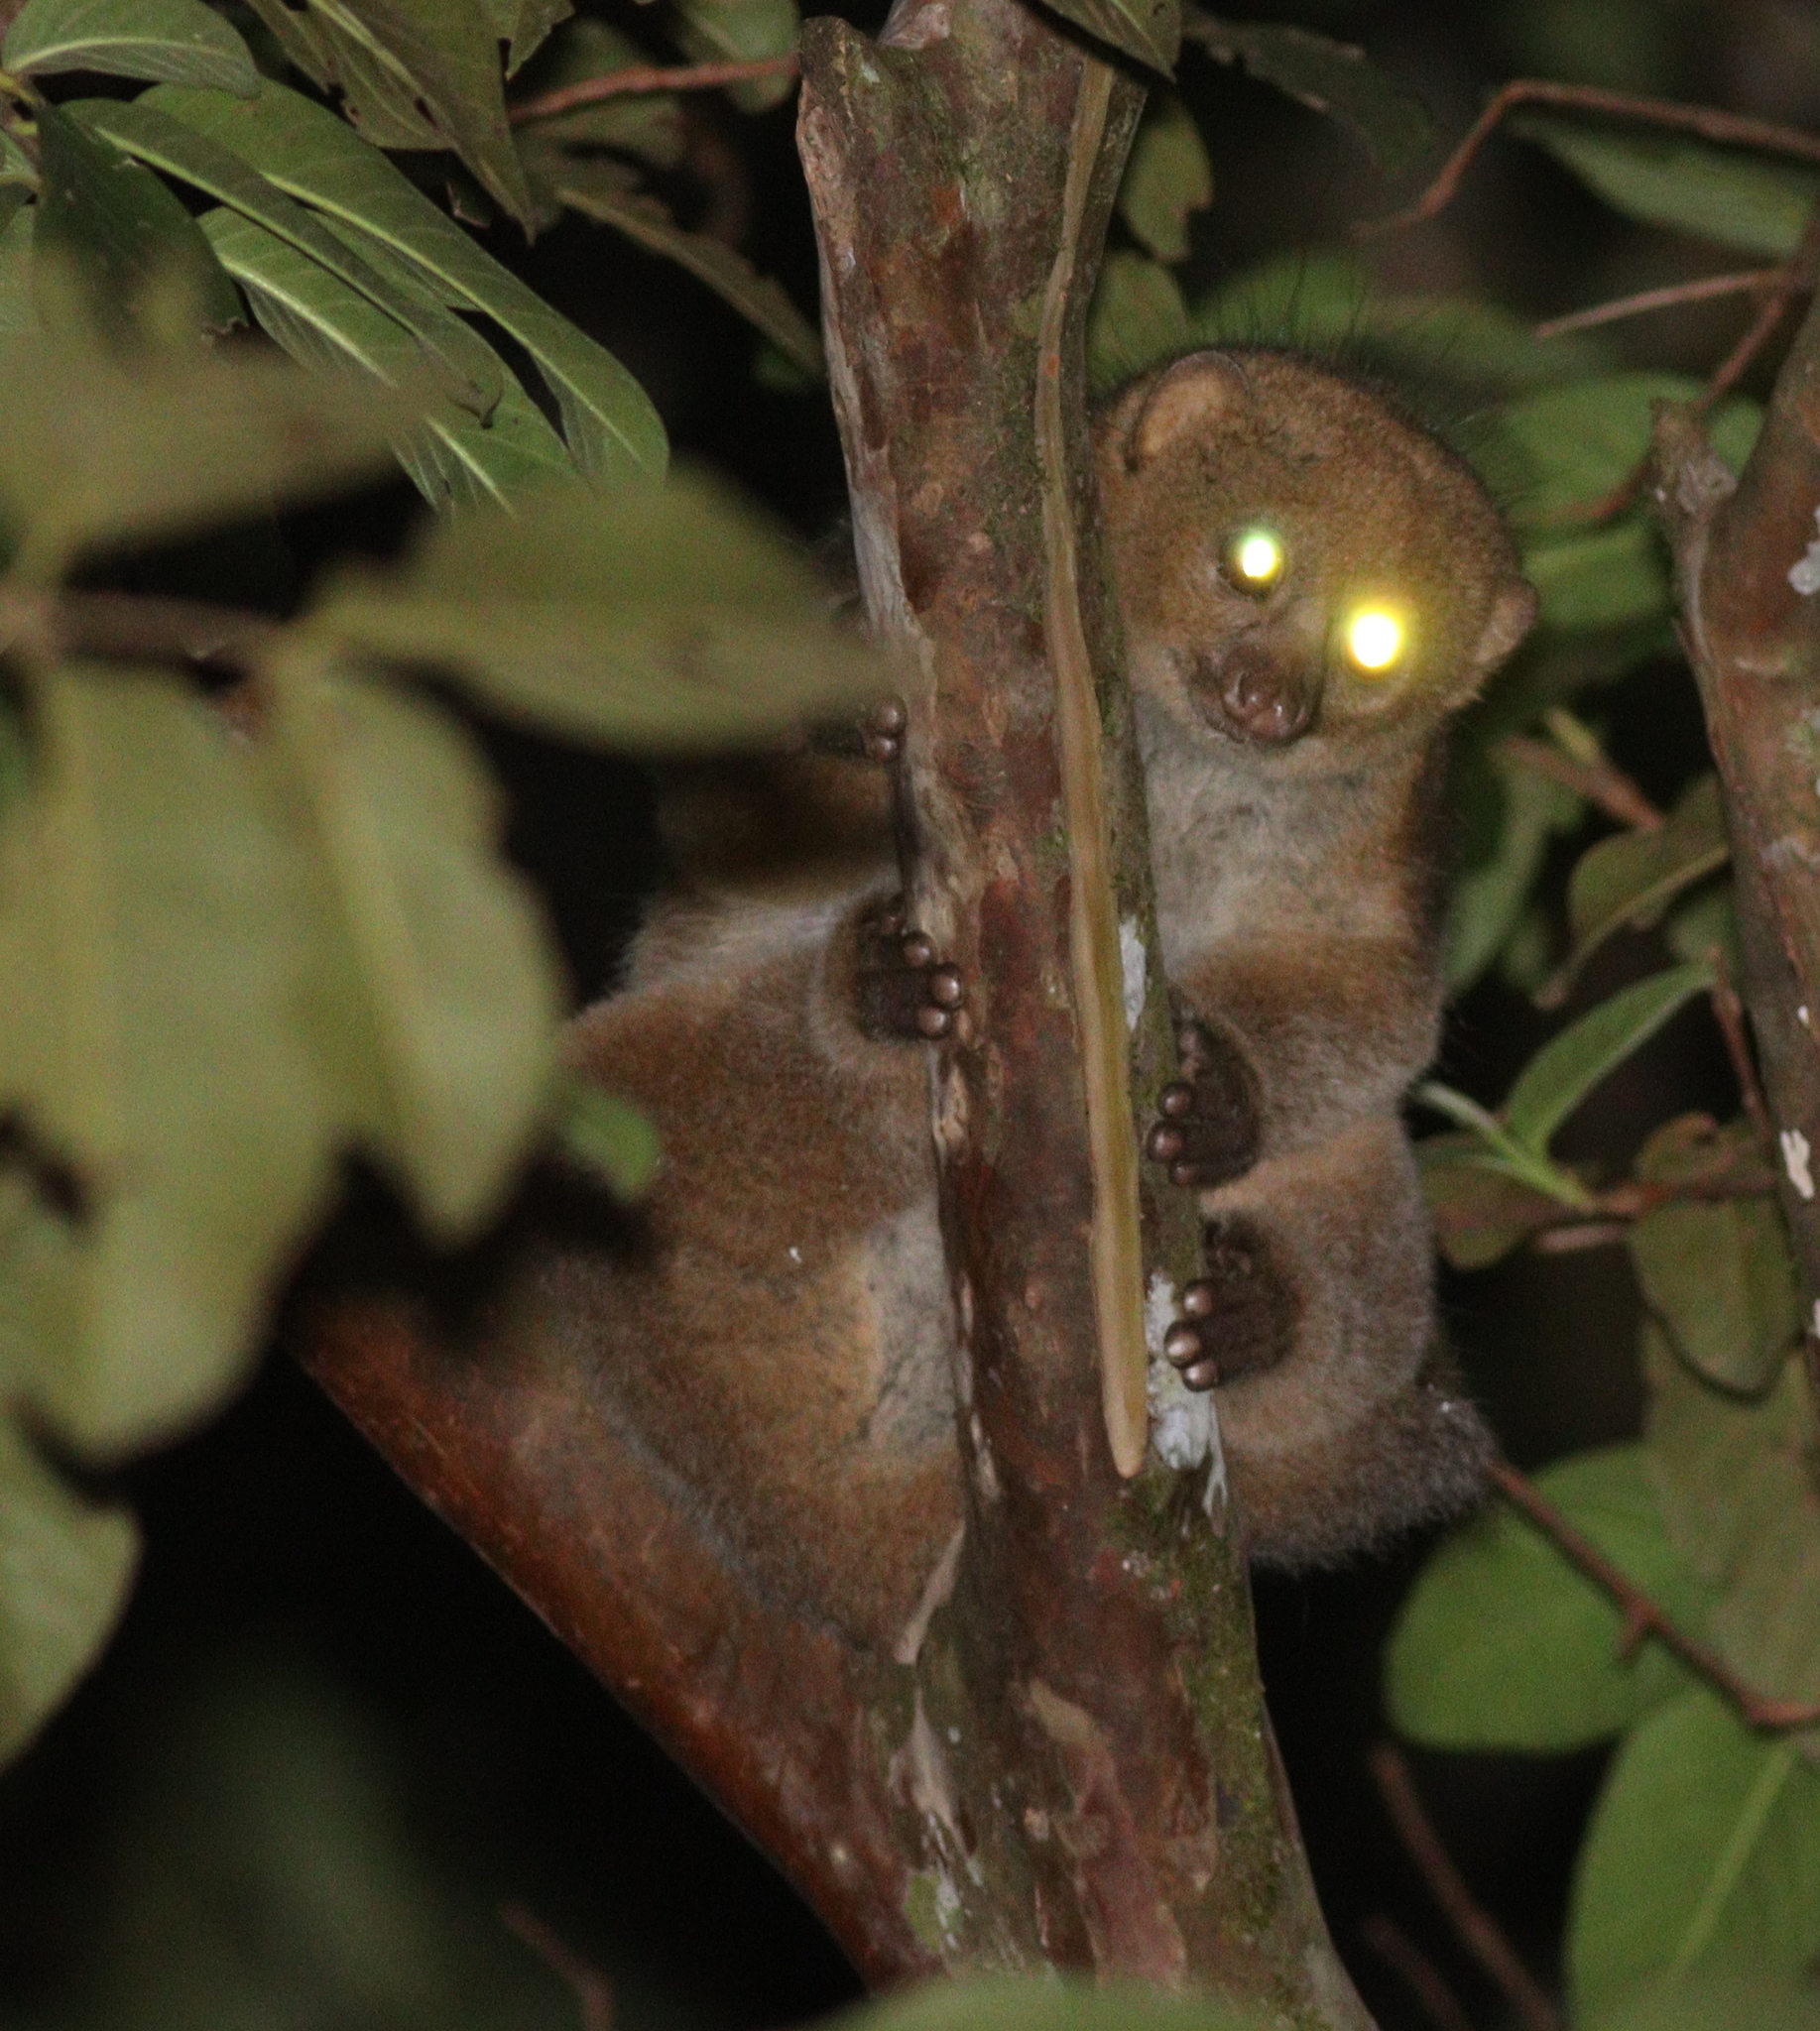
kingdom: Animalia
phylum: Chordata
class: Mammalia
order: Primates
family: Lorisidae
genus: Perodicticus
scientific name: Perodicticus ibeanus
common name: East african potto
